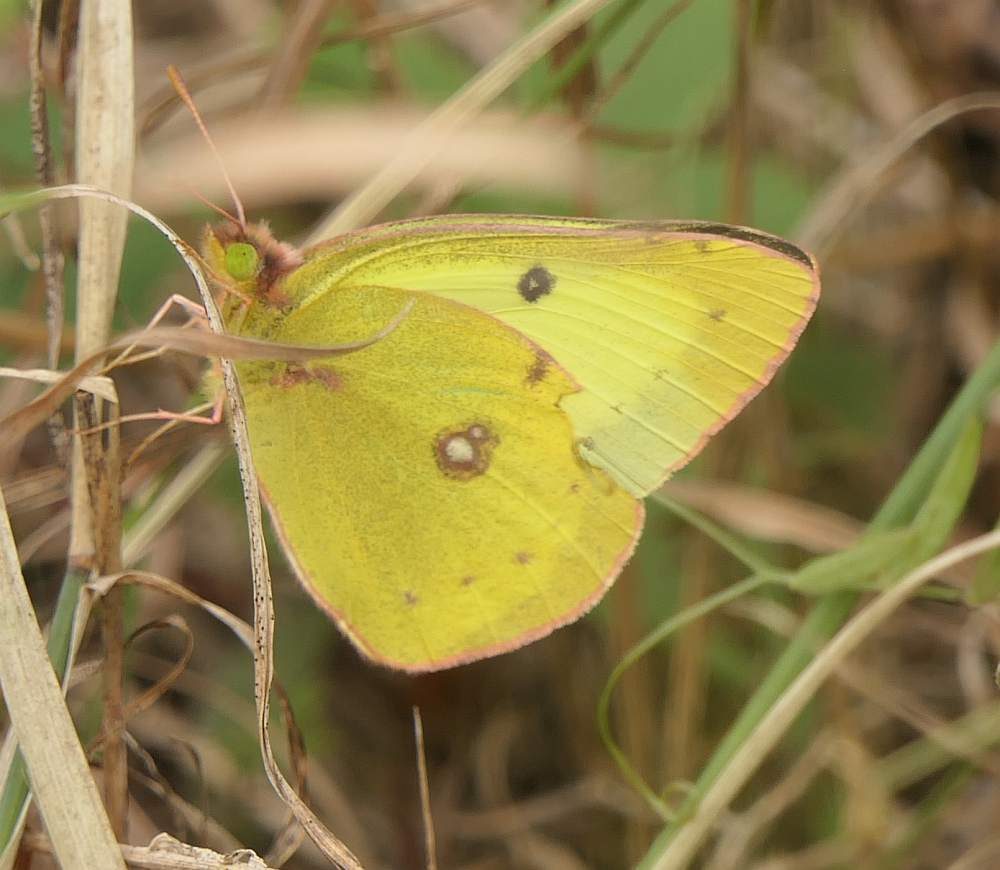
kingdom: Animalia
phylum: Arthropoda
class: Insecta
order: Lepidoptera
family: Pieridae
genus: Colias
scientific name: Colias philodice
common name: Clouded sulphur
